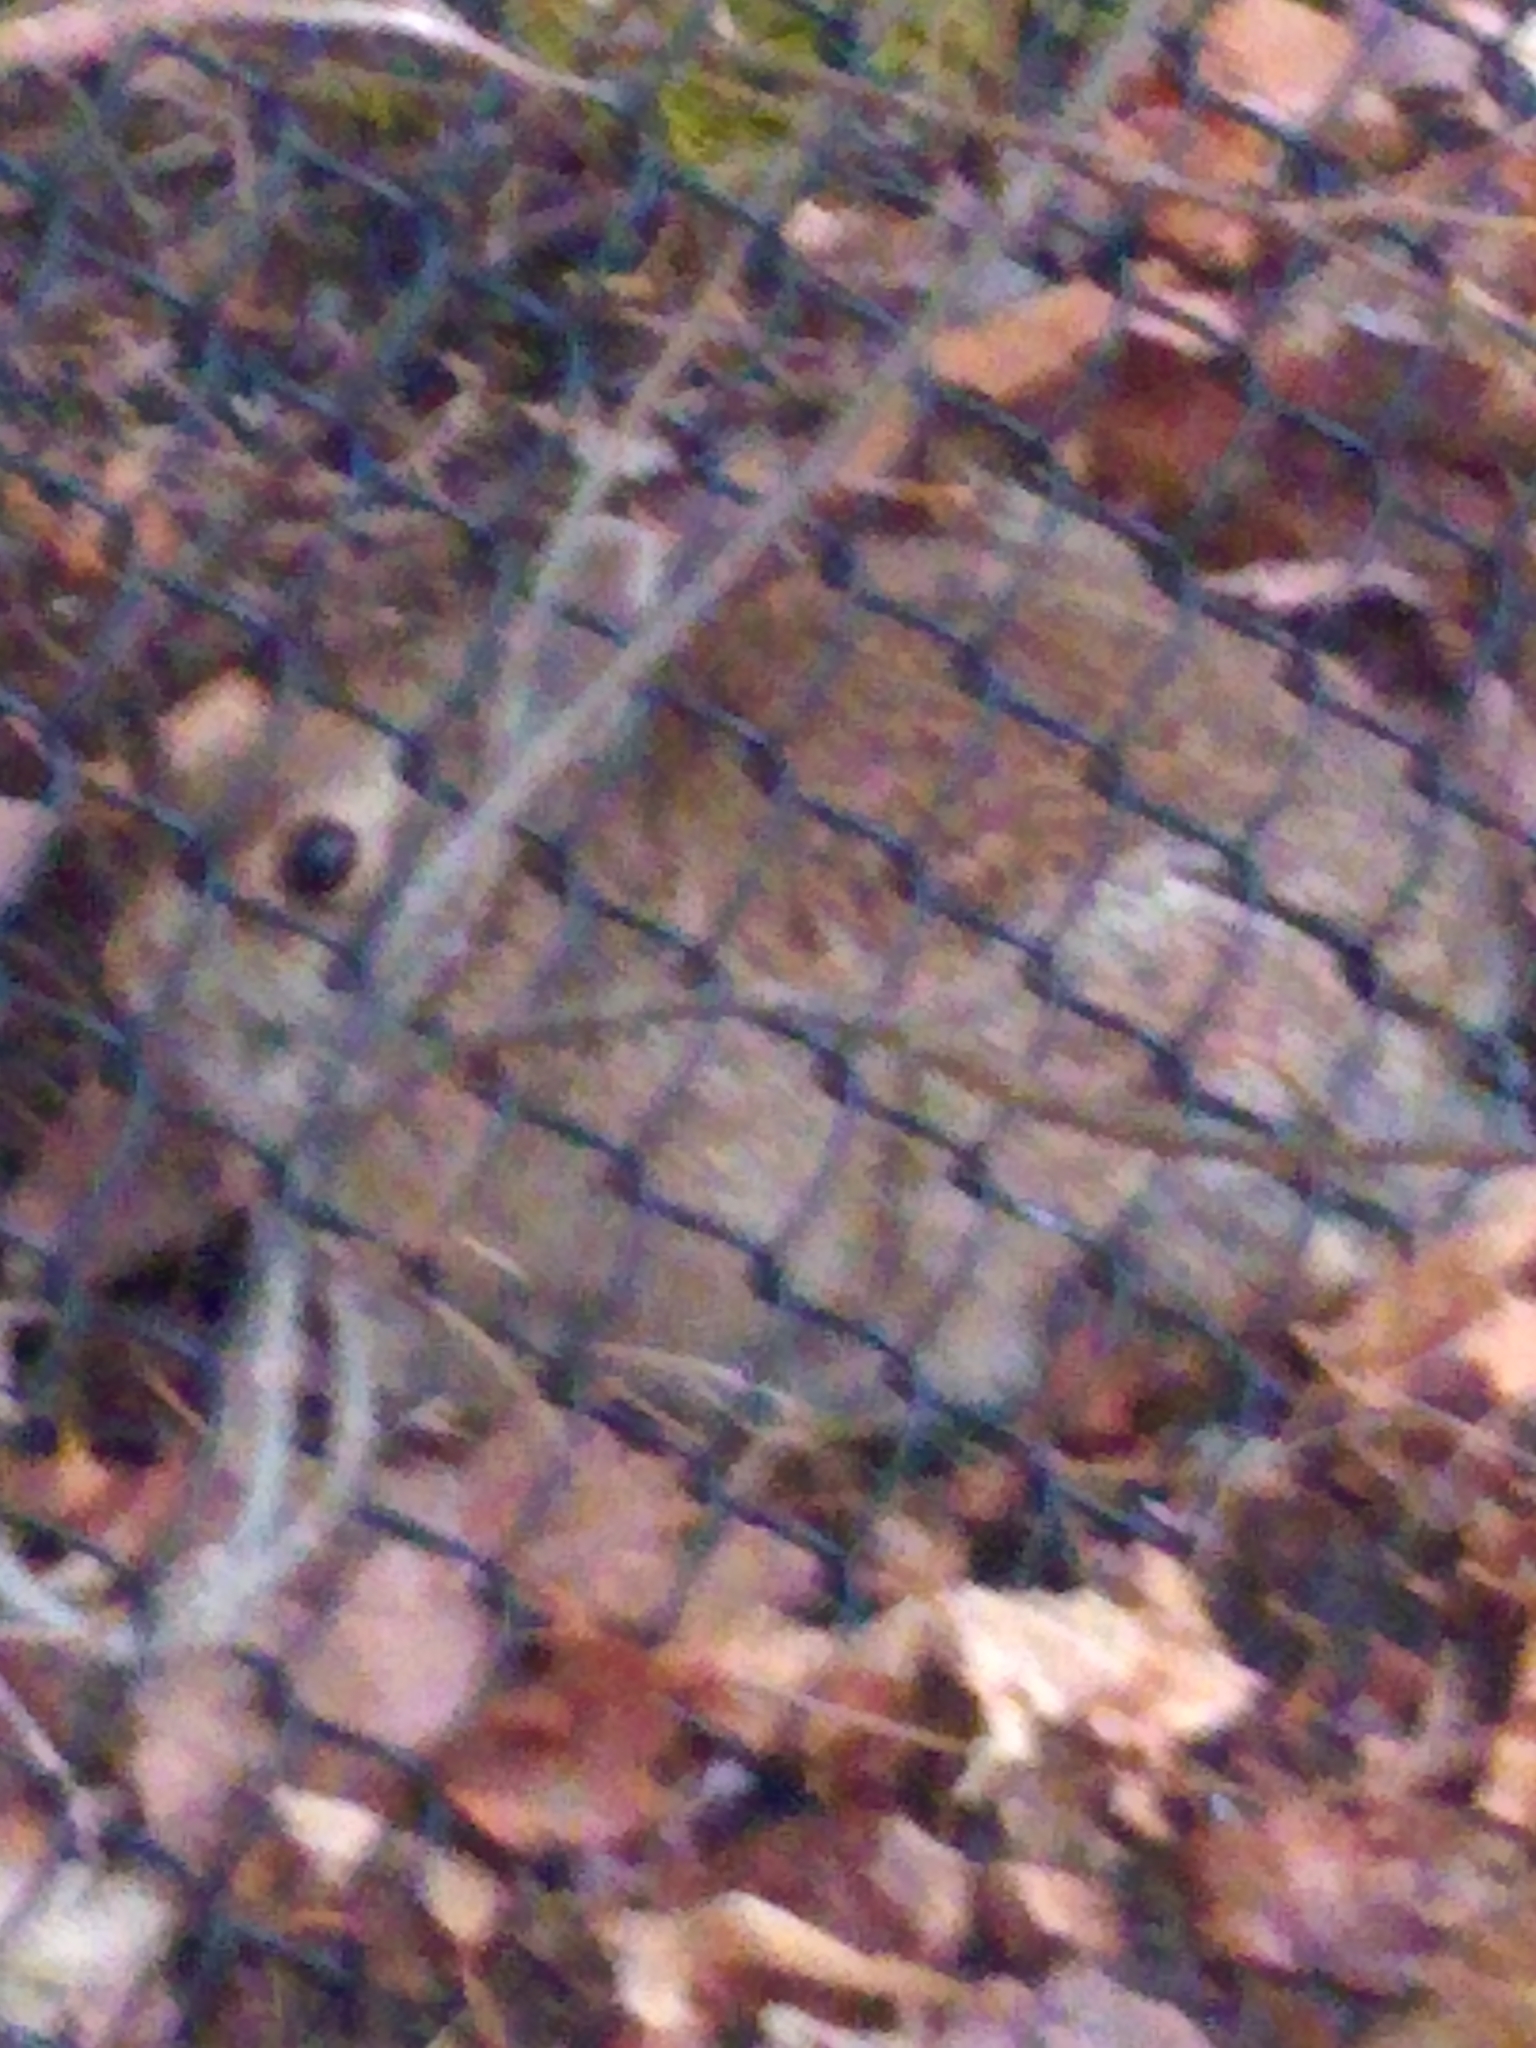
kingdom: Animalia
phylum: Chordata
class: Mammalia
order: Lagomorpha
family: Leporidae
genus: Sylvilagus
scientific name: Sylvilagus floridanus
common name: Eastern cottontail
